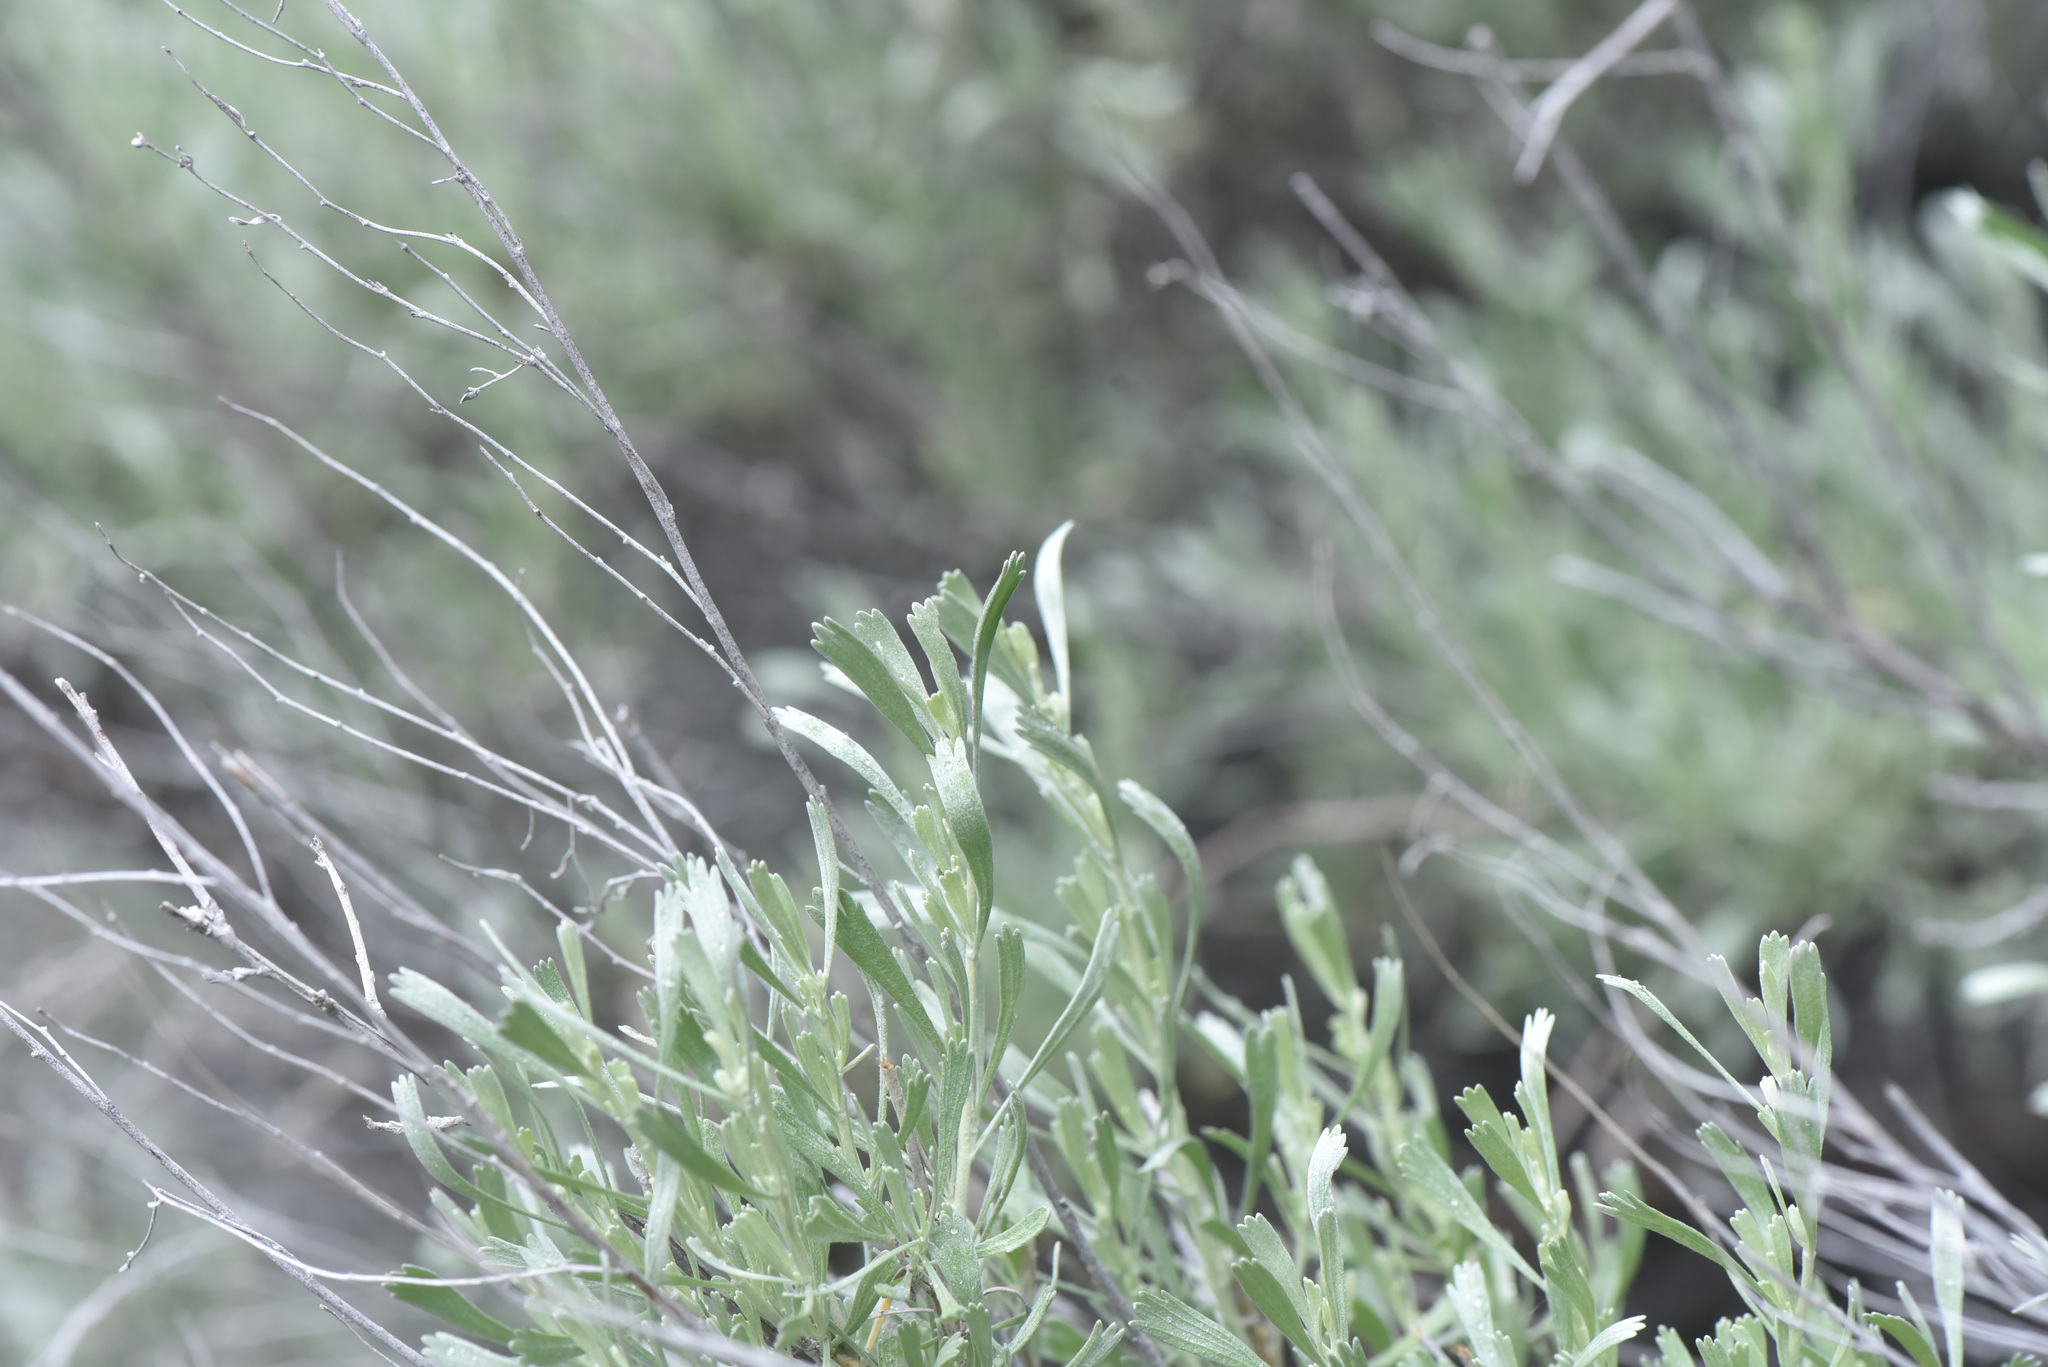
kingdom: Plantae
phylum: Tracheophyta
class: Magnoliopsida
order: Asterales
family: Asteraceae
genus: Artemisia
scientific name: Artemisia tridentata
